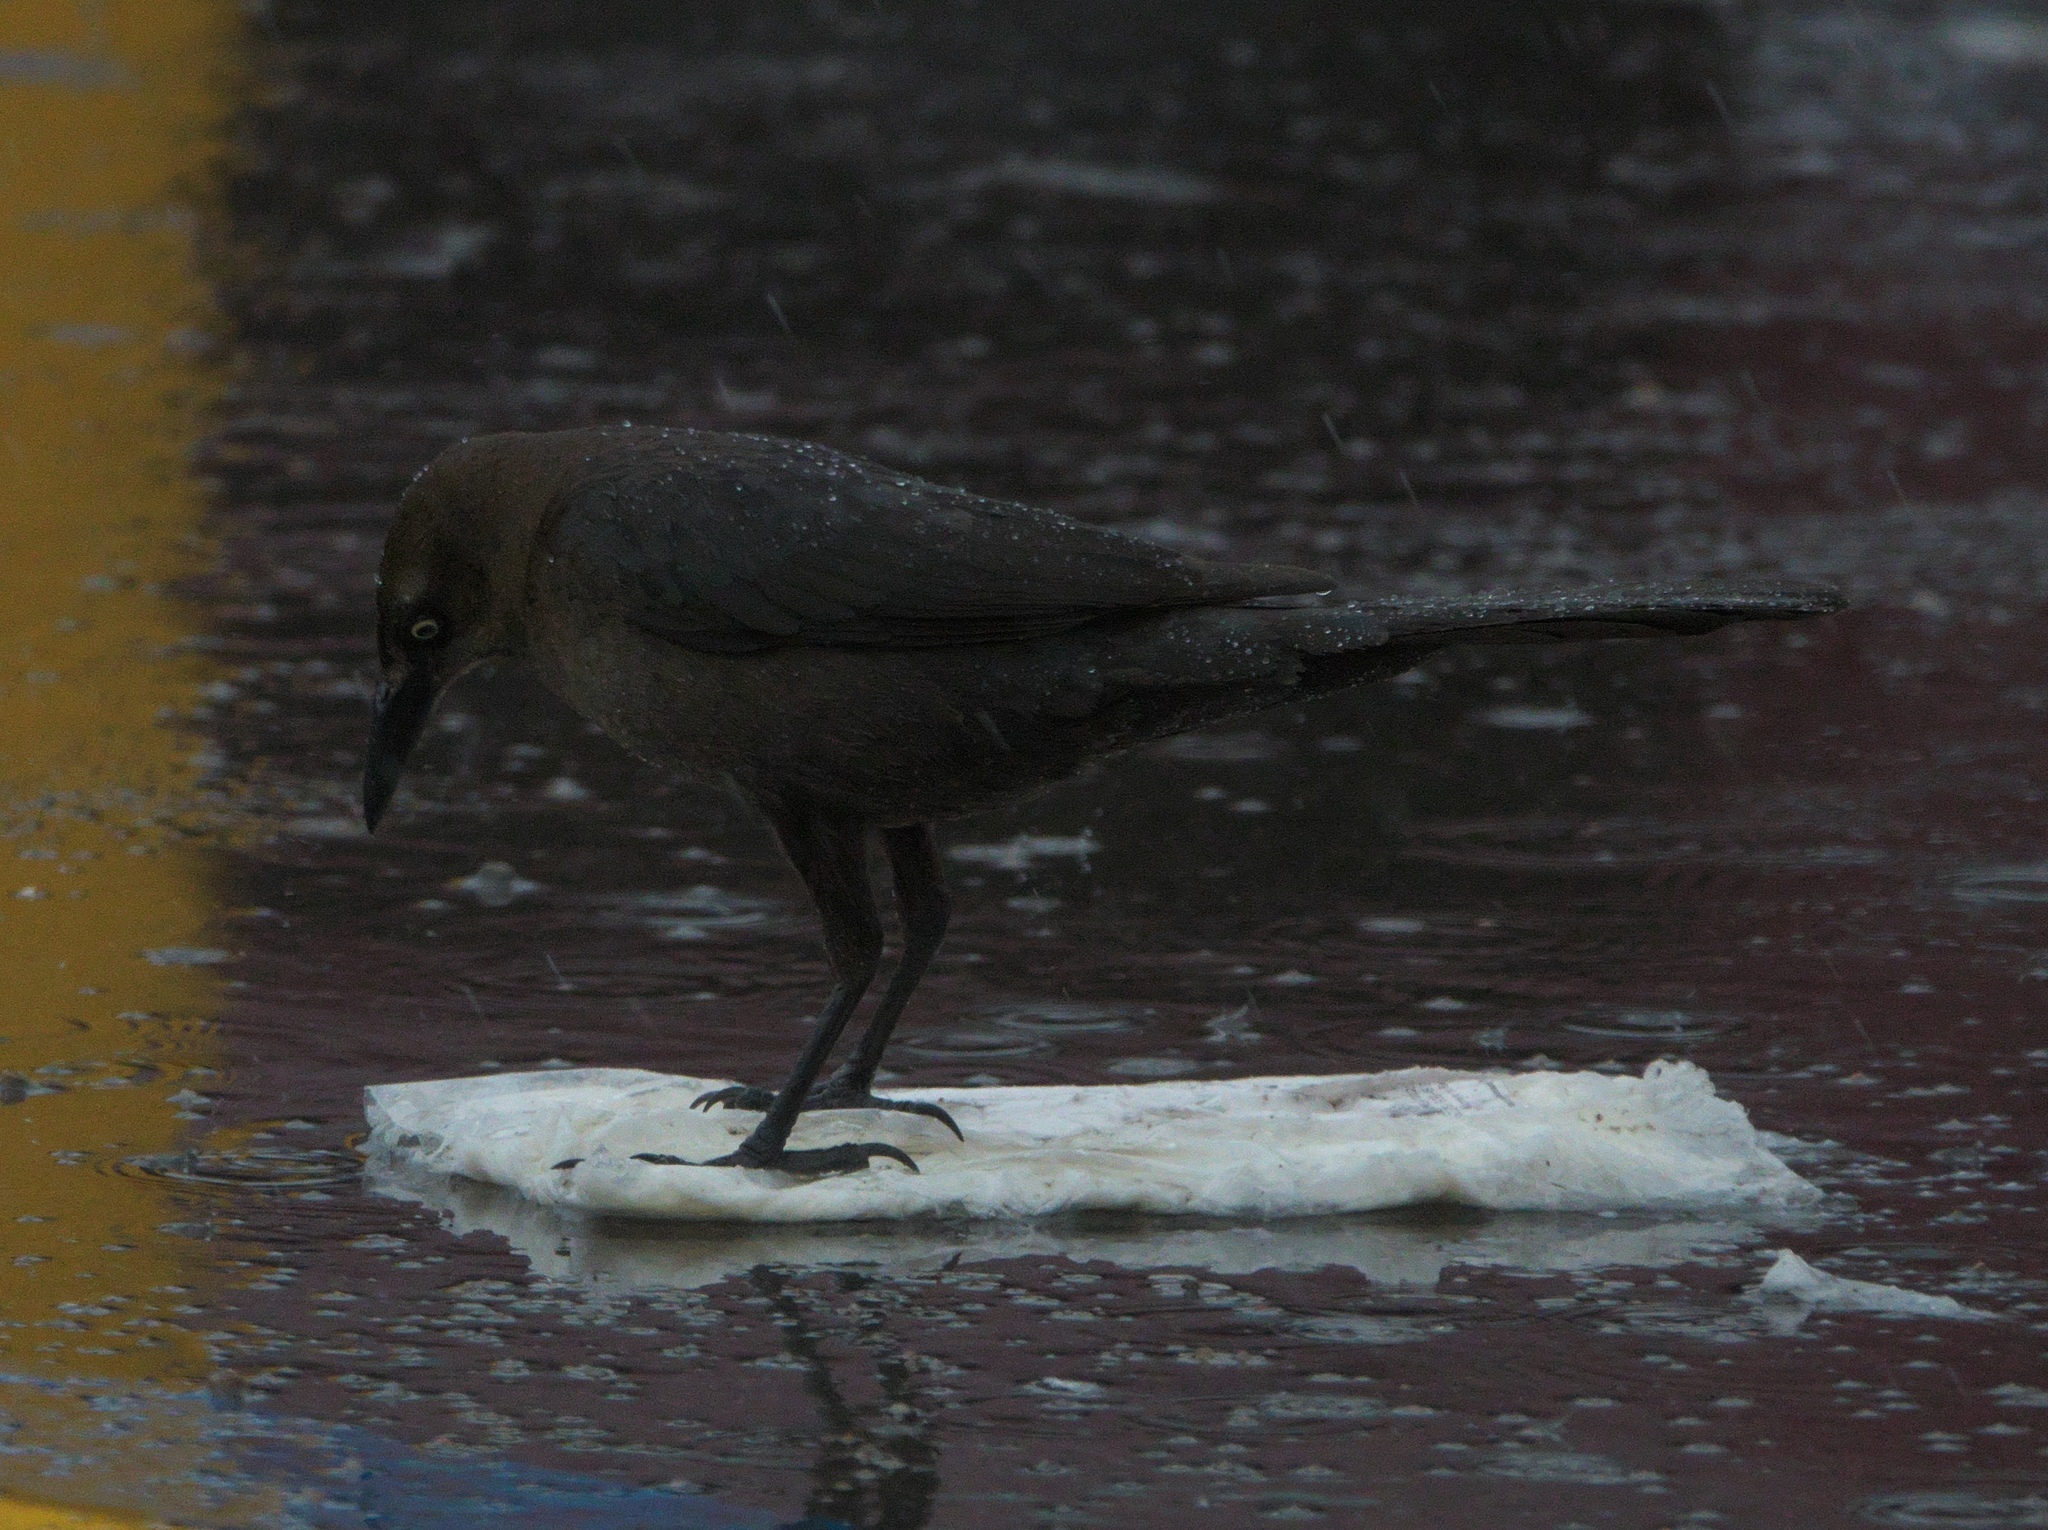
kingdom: Animalia
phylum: Chordata
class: Aves
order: Passeriformes
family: Icteridae
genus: Quiscalus
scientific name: Quiscalus mexicanus
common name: Great-tailed grackle
